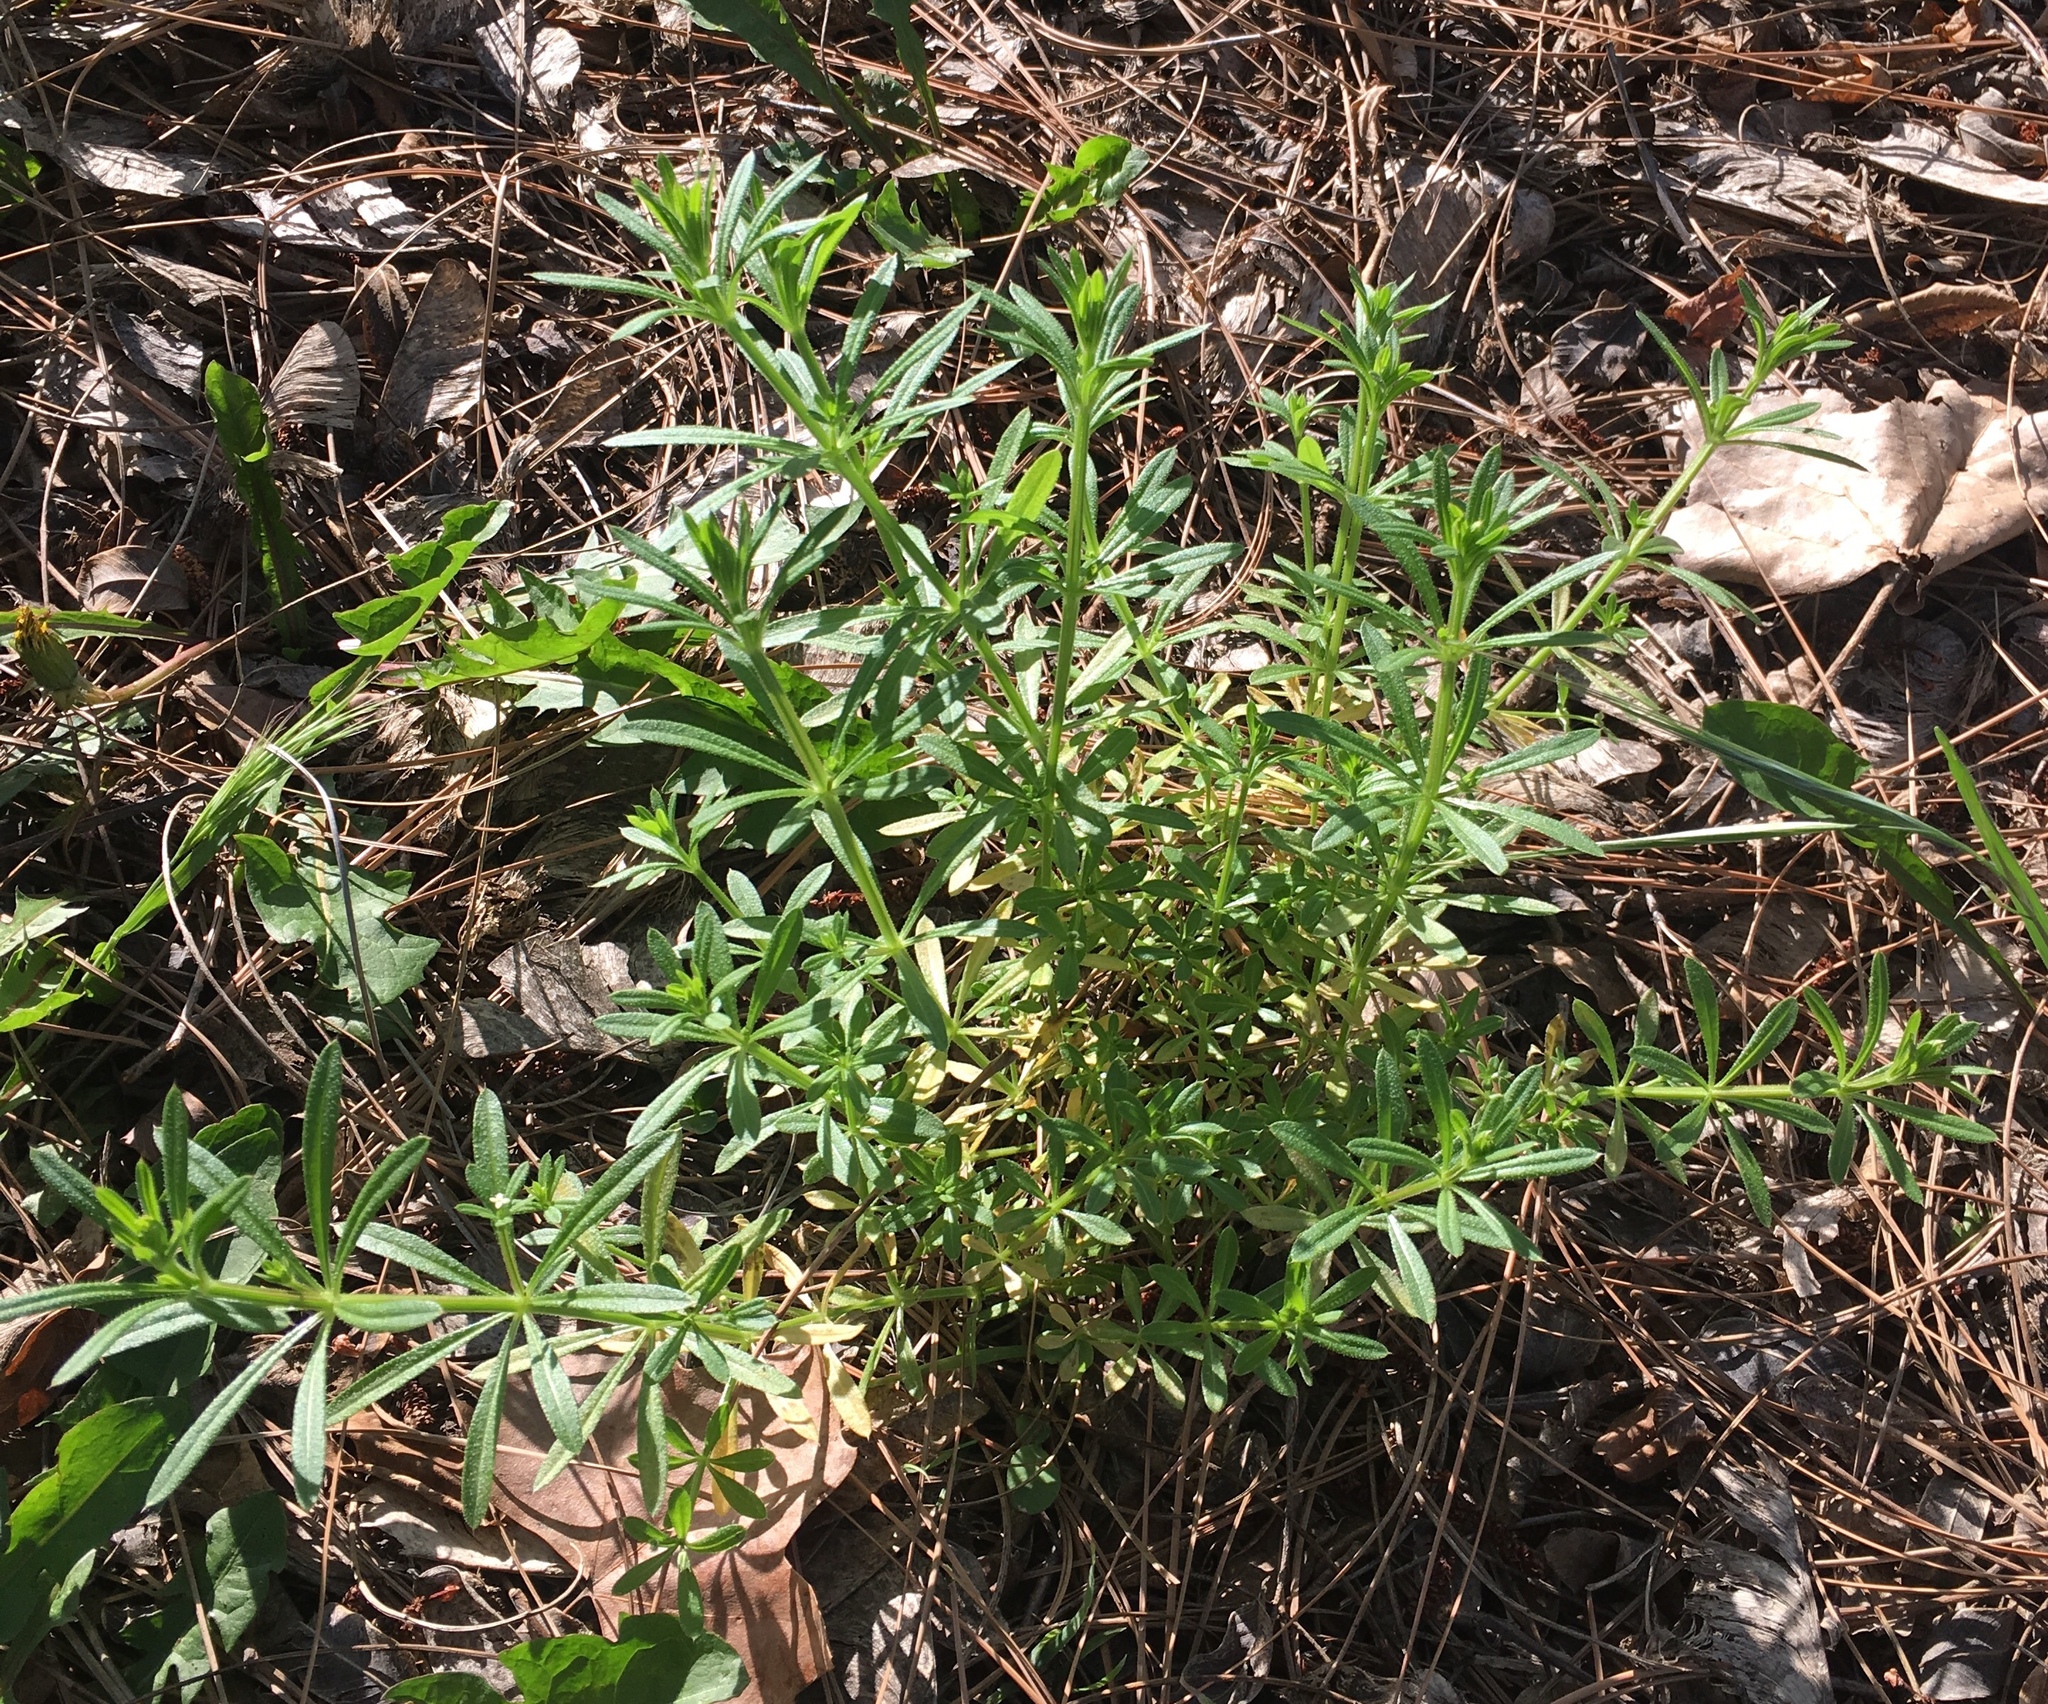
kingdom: Plantae
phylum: Tracheophyta
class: Magnoliopsida
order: Gentianales
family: Rubiaceae
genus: Galium
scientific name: Galium aparine
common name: Cleavers
